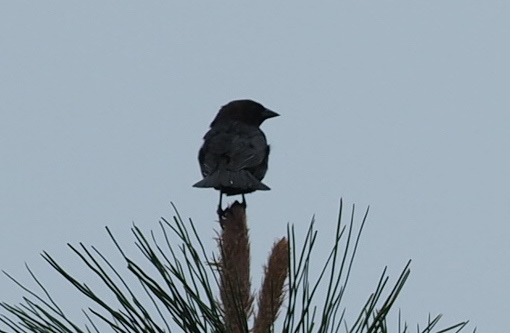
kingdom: Animalia
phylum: Chordata
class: Aves
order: Passeriformes
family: Icteridae
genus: Molothrus
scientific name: Molothrus ater
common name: Brown-headed cowbird
